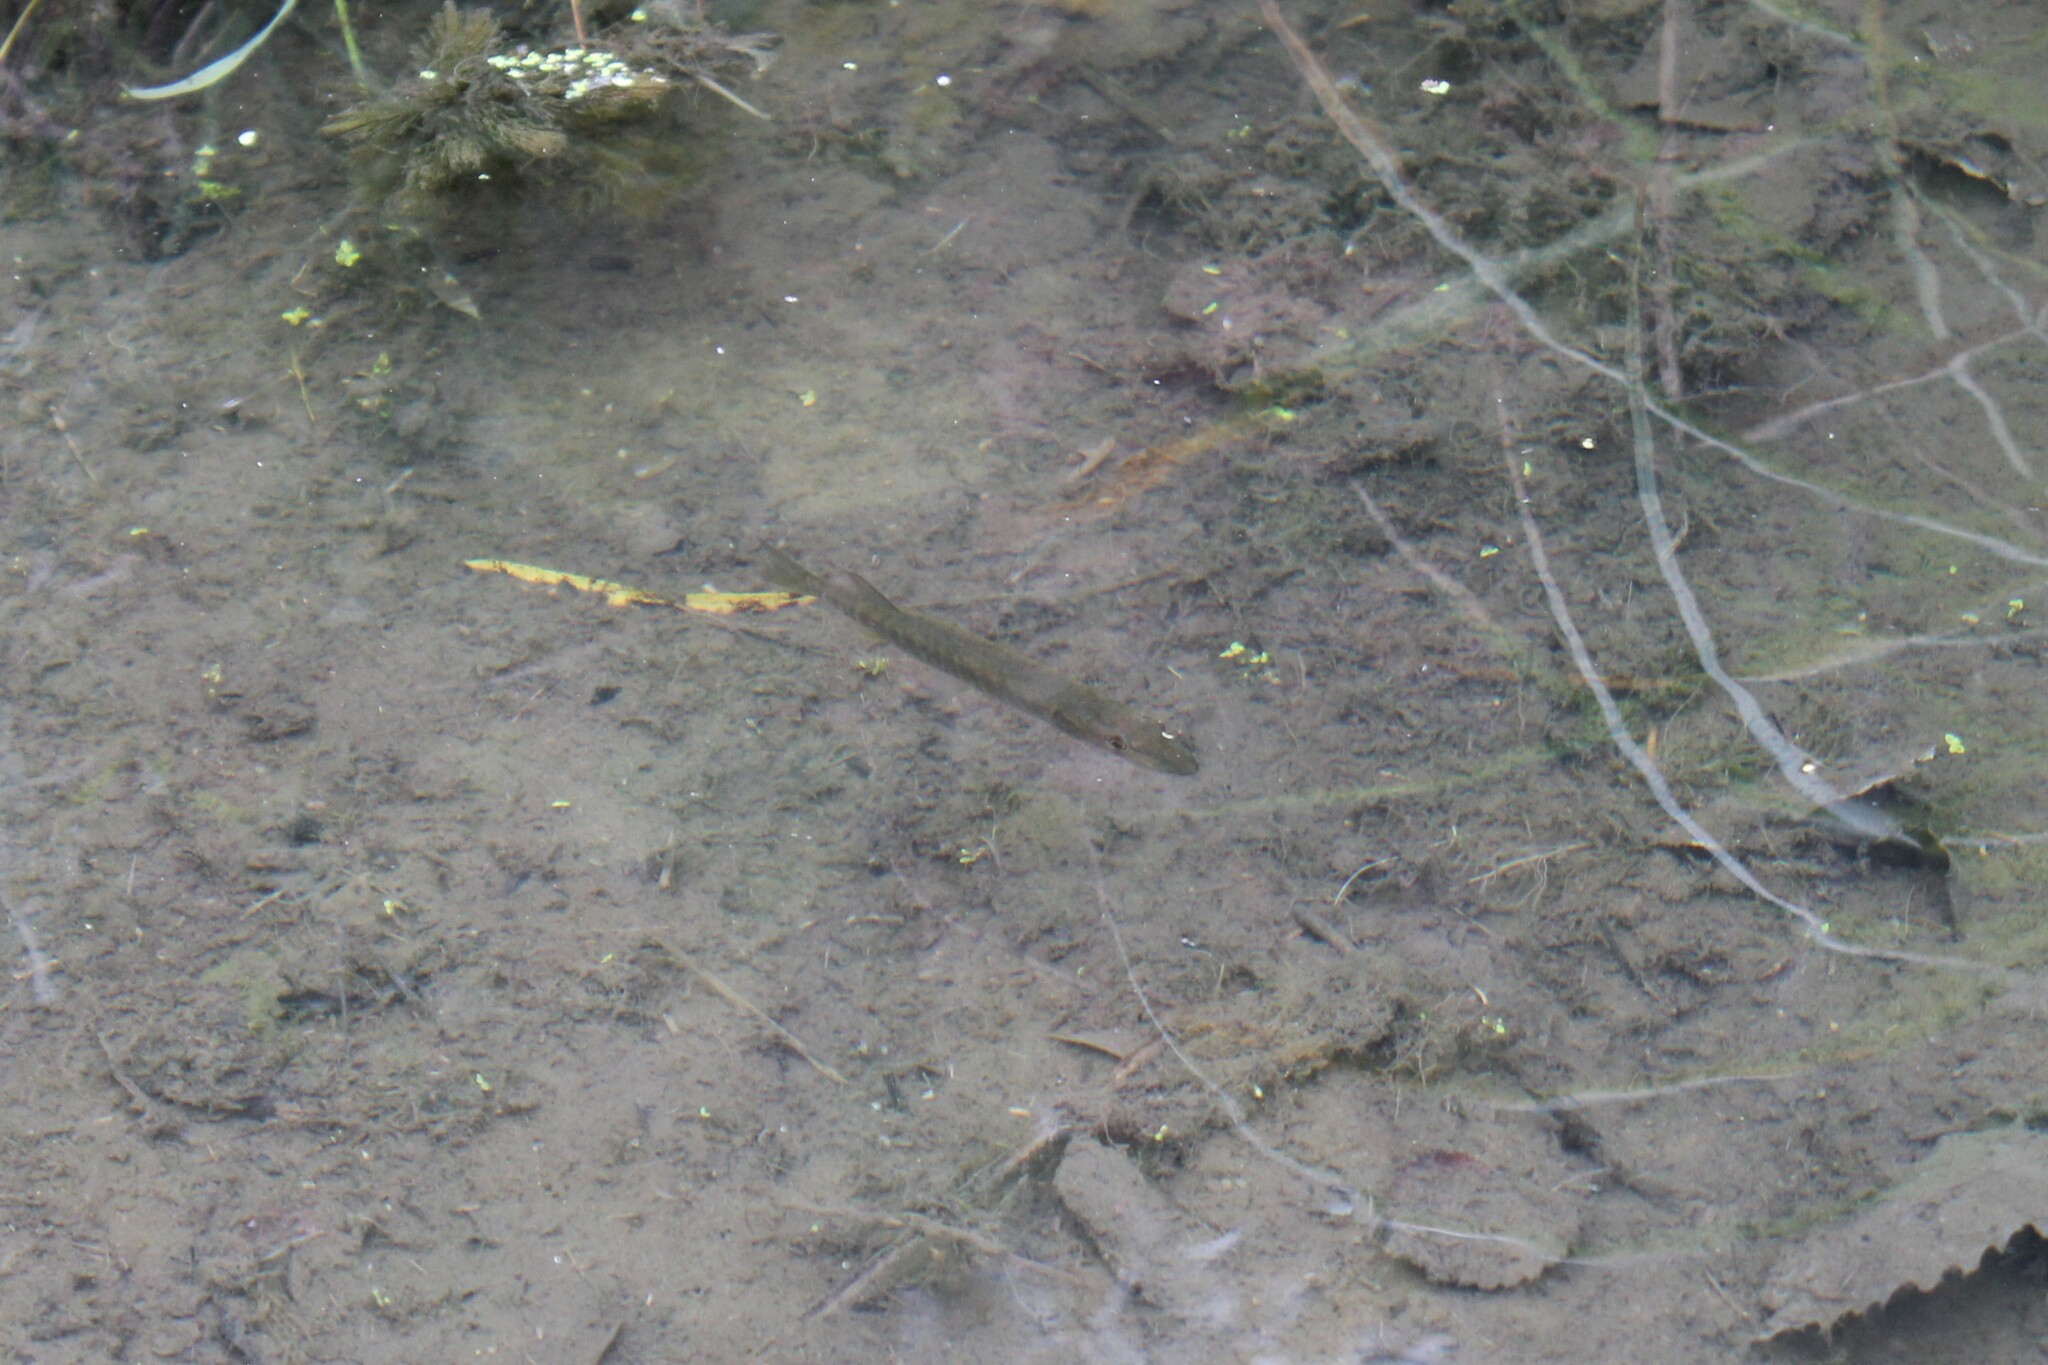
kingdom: Animalia
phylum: Chordata
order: Esociformes
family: Esocidae
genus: Esox
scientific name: Esox americanus
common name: Redfin pickerel
